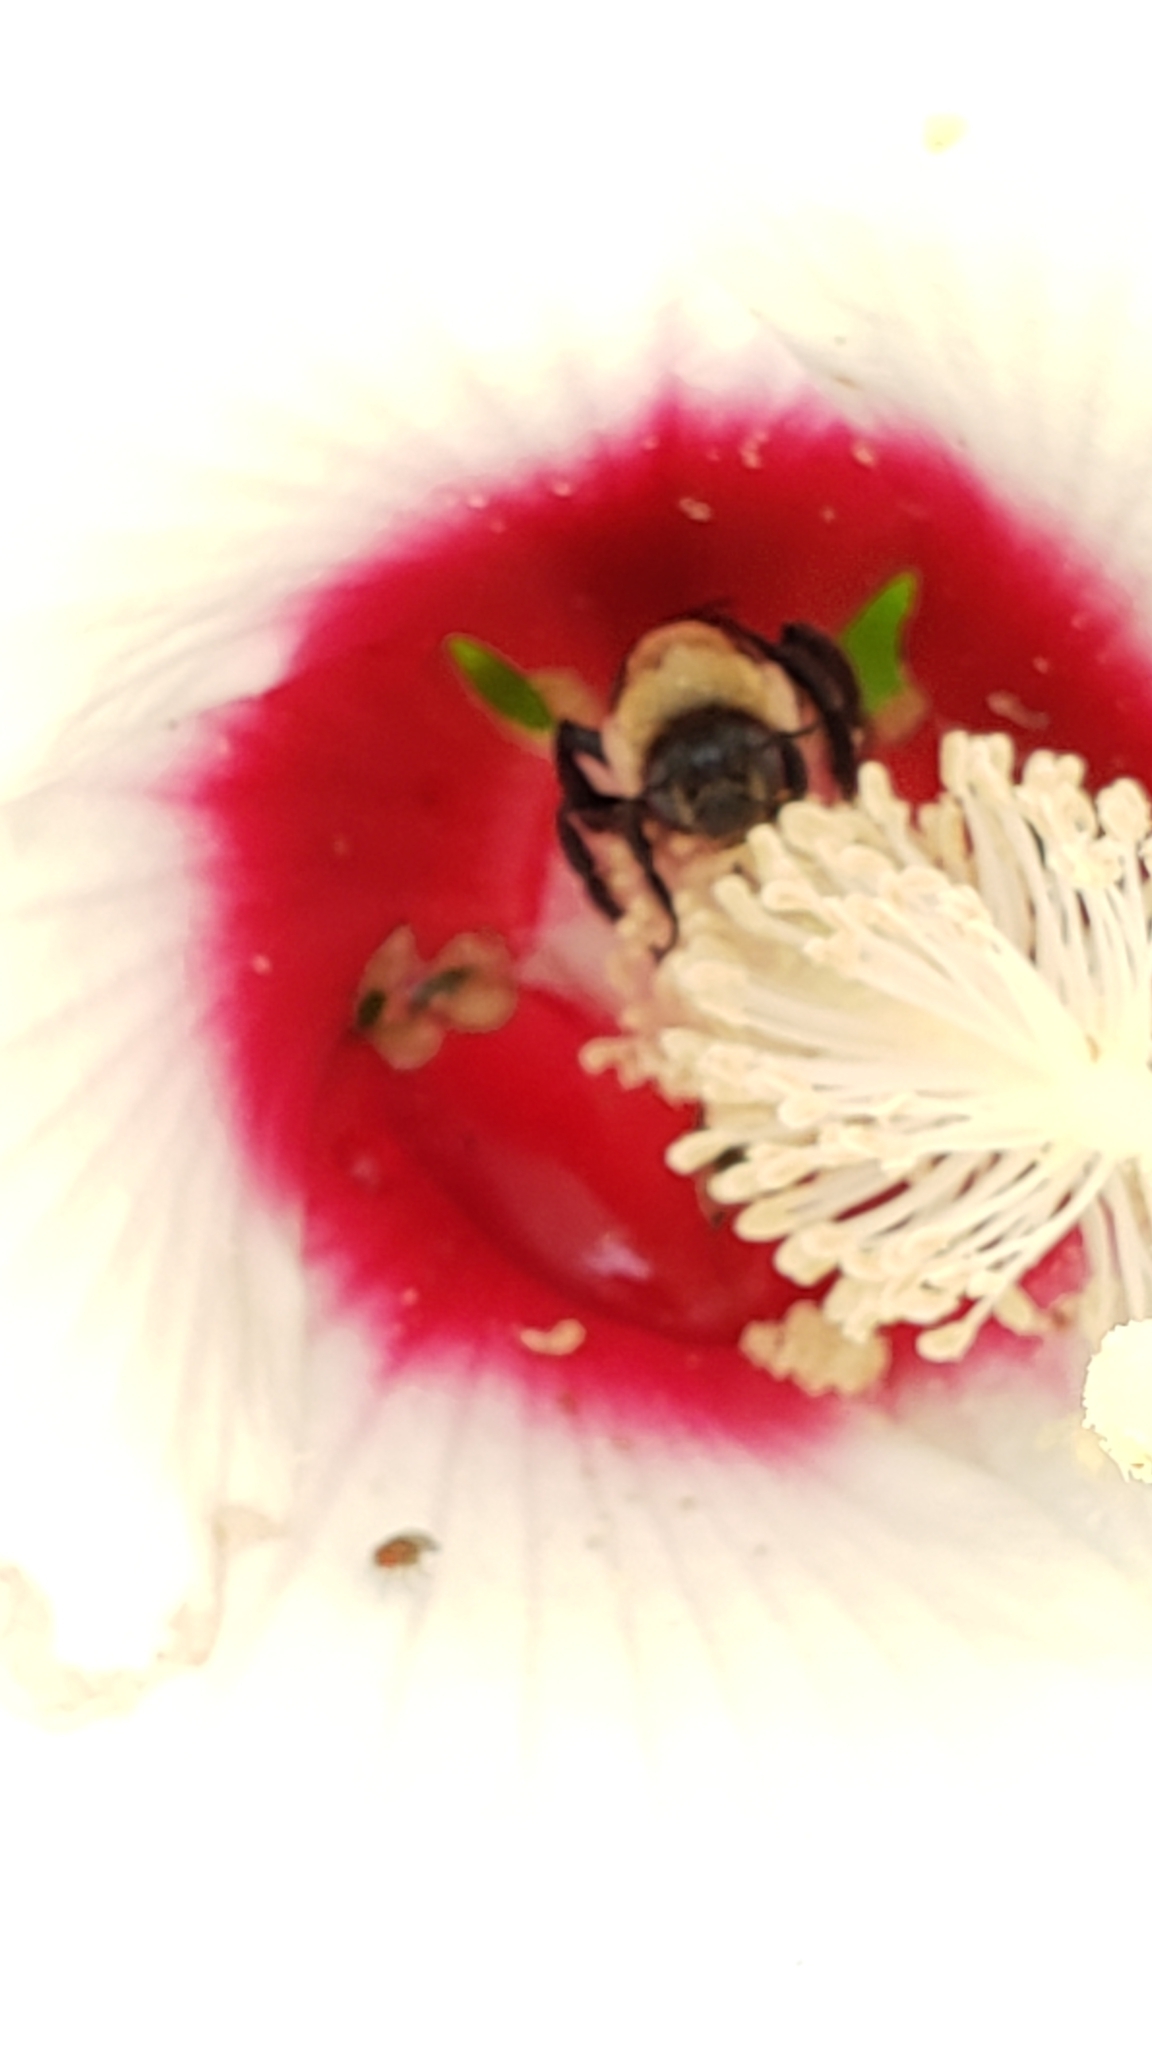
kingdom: Plantae
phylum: Tracheophyta
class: Magnoliopsida
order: Malvales
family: Malvaceae
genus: Hibiscus
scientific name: Hibiscus moscheutos
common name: Common rose-mallow
